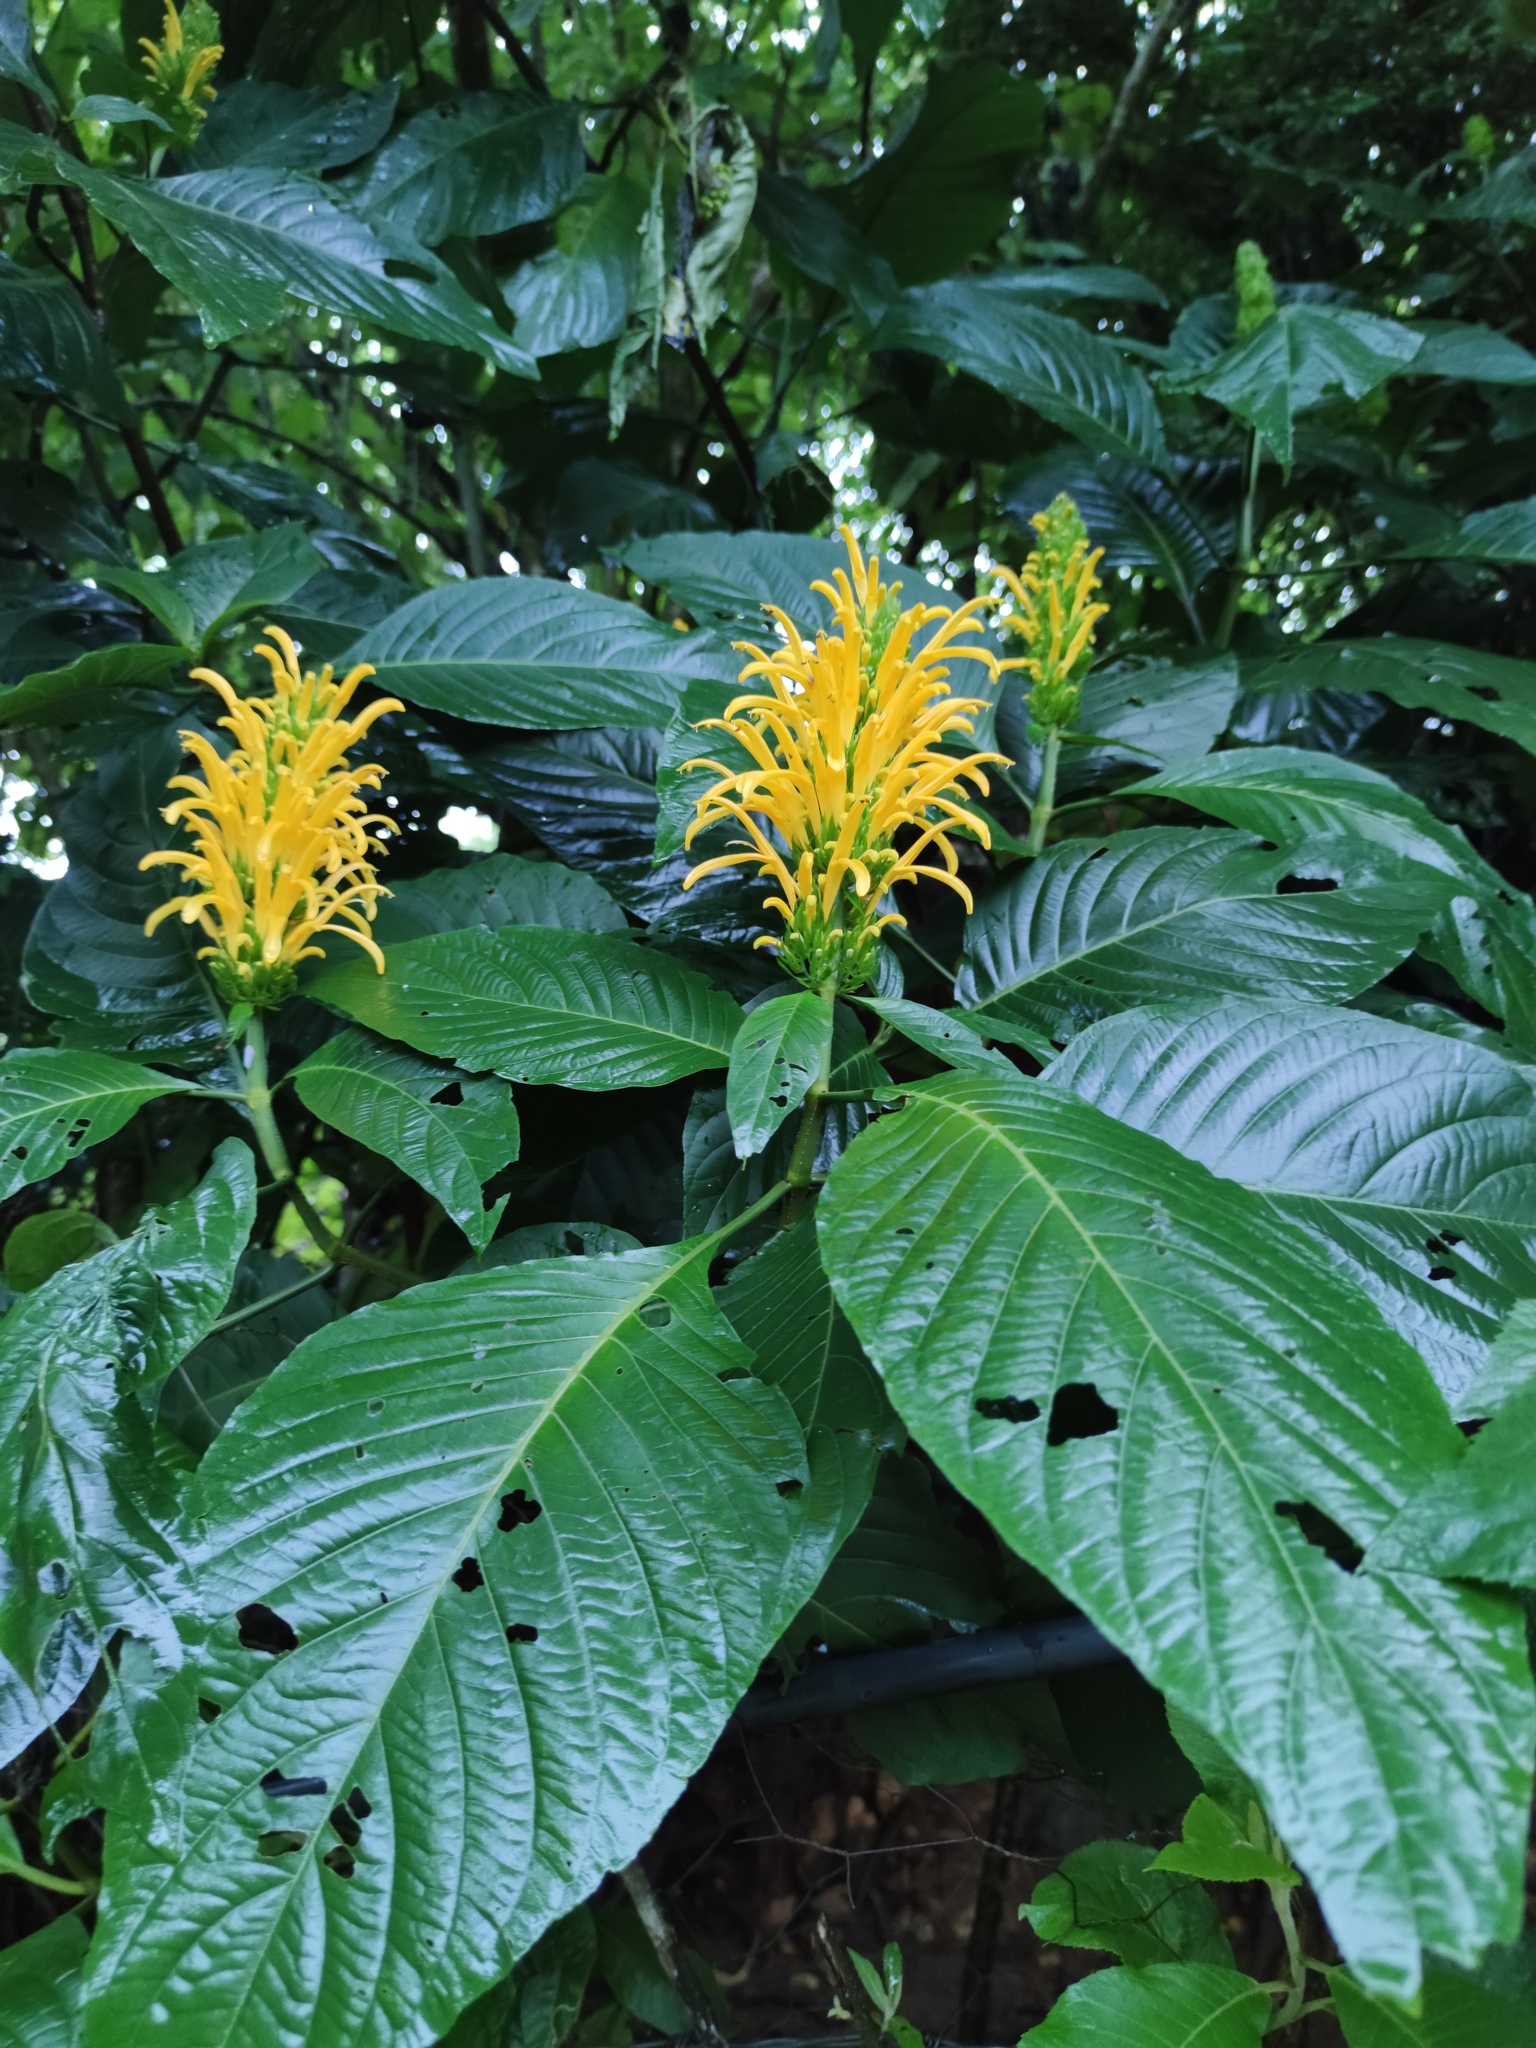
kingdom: Plantae
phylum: Tracheophyta
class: Magnoliopsida
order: Lamiales
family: Acanthaceae
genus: Justicia
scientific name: Justicia aurea
